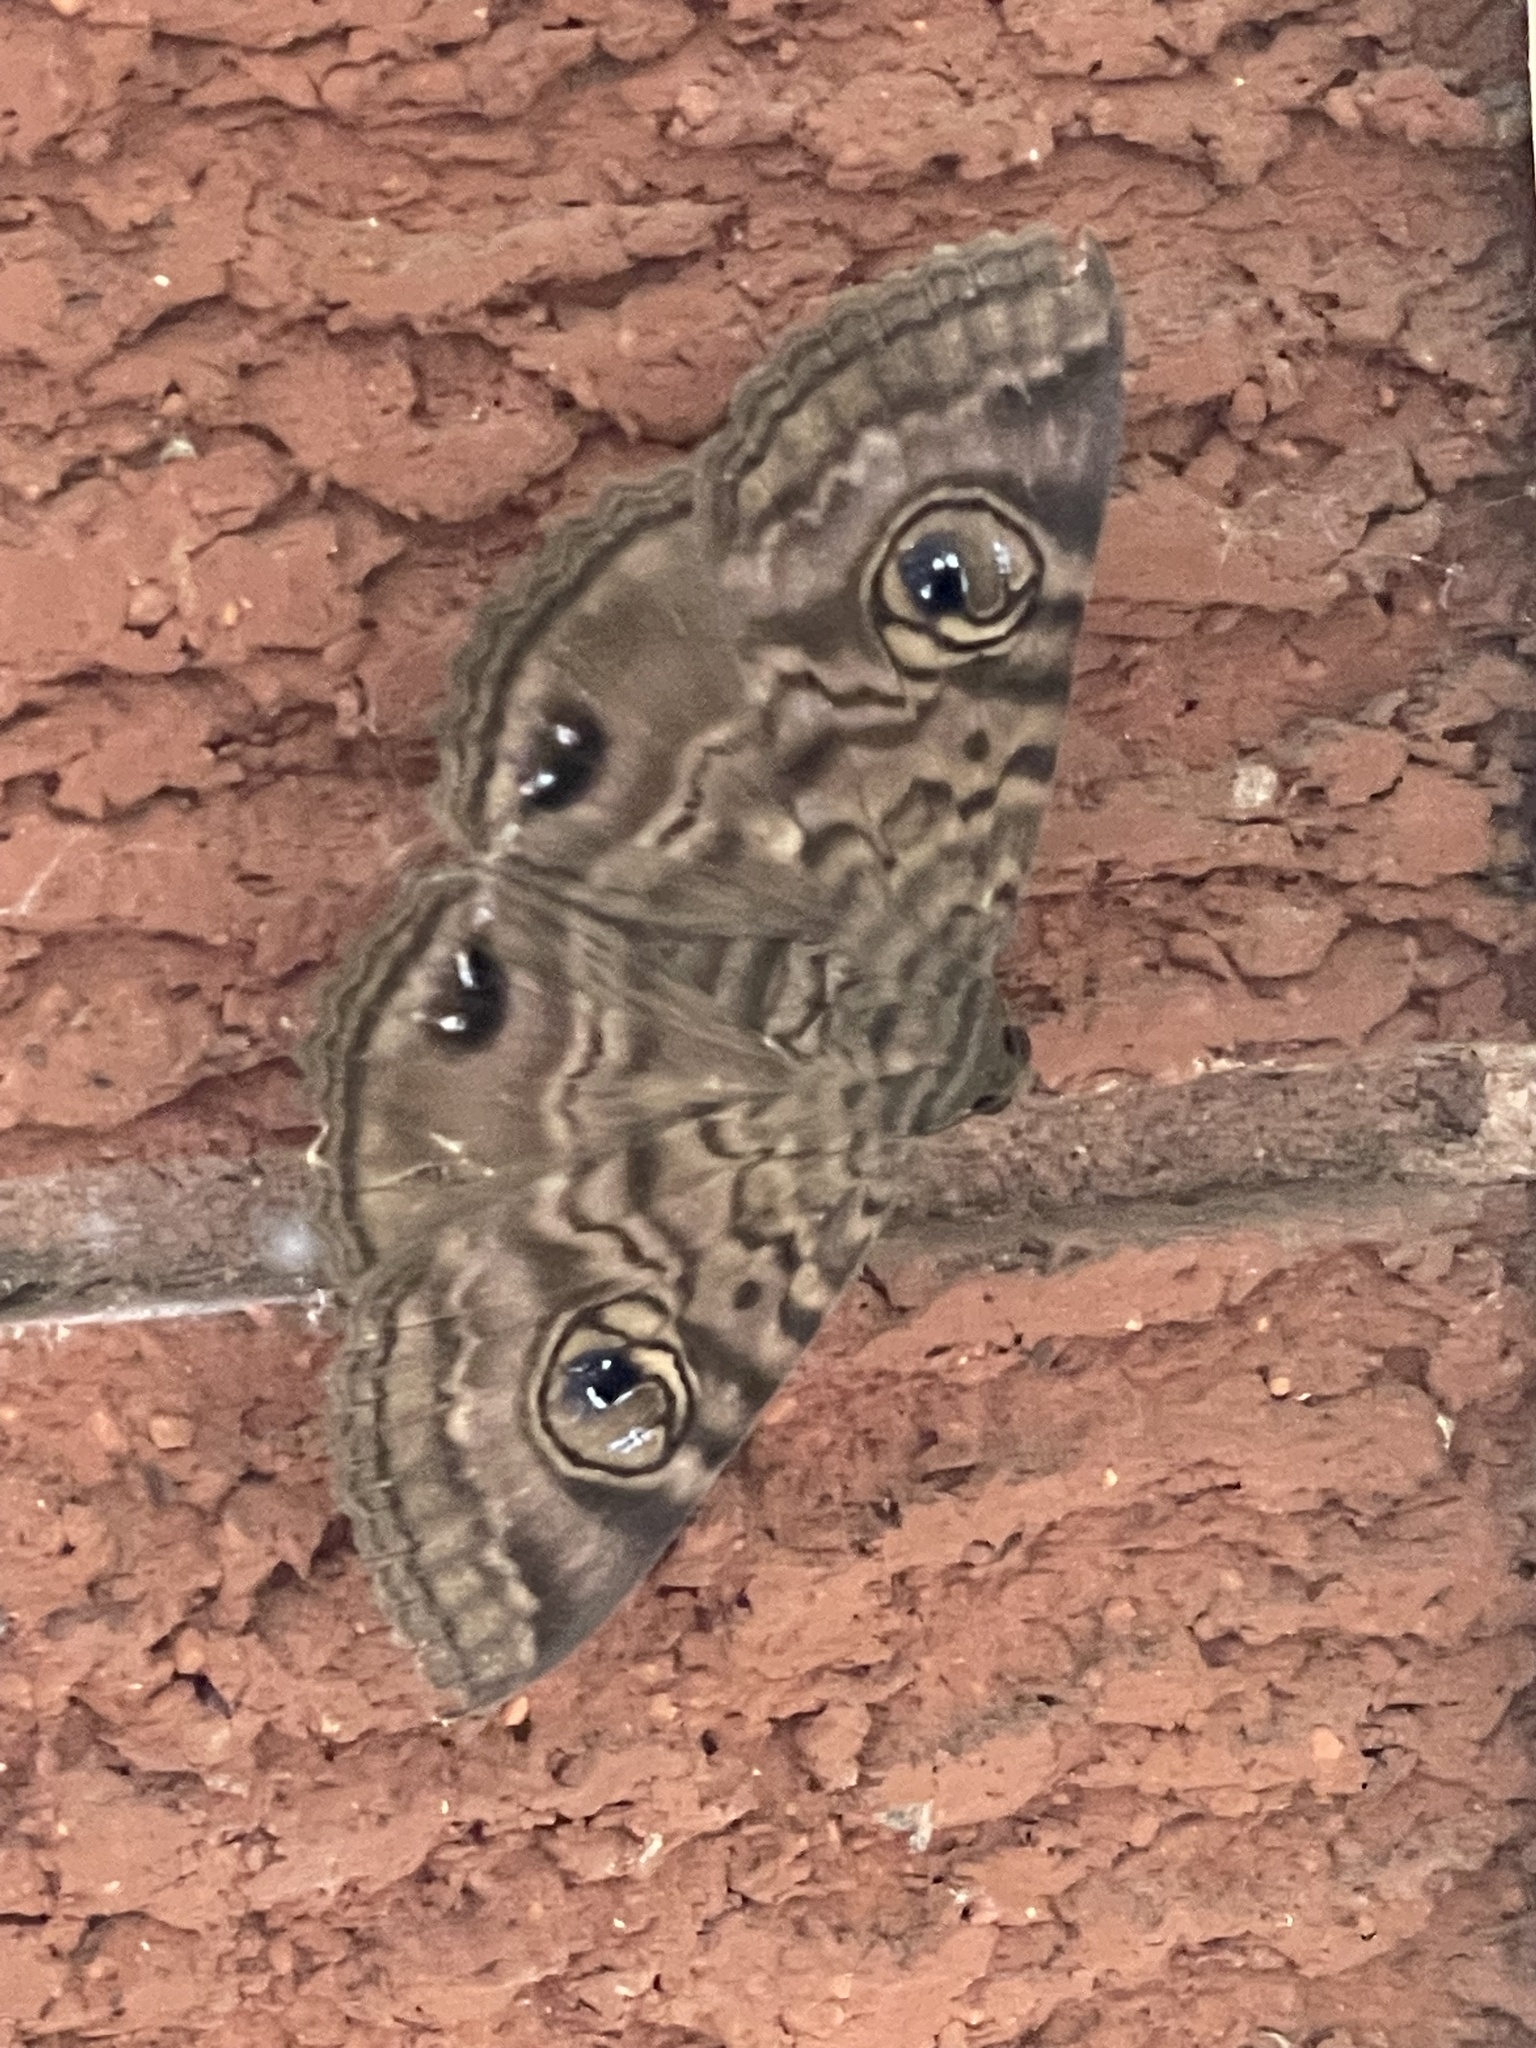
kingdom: Animalia
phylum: Arthropoda
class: Insecta
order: Lepidoptera
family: Erebidae
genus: Speiredonia
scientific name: Speiredonia spectans
